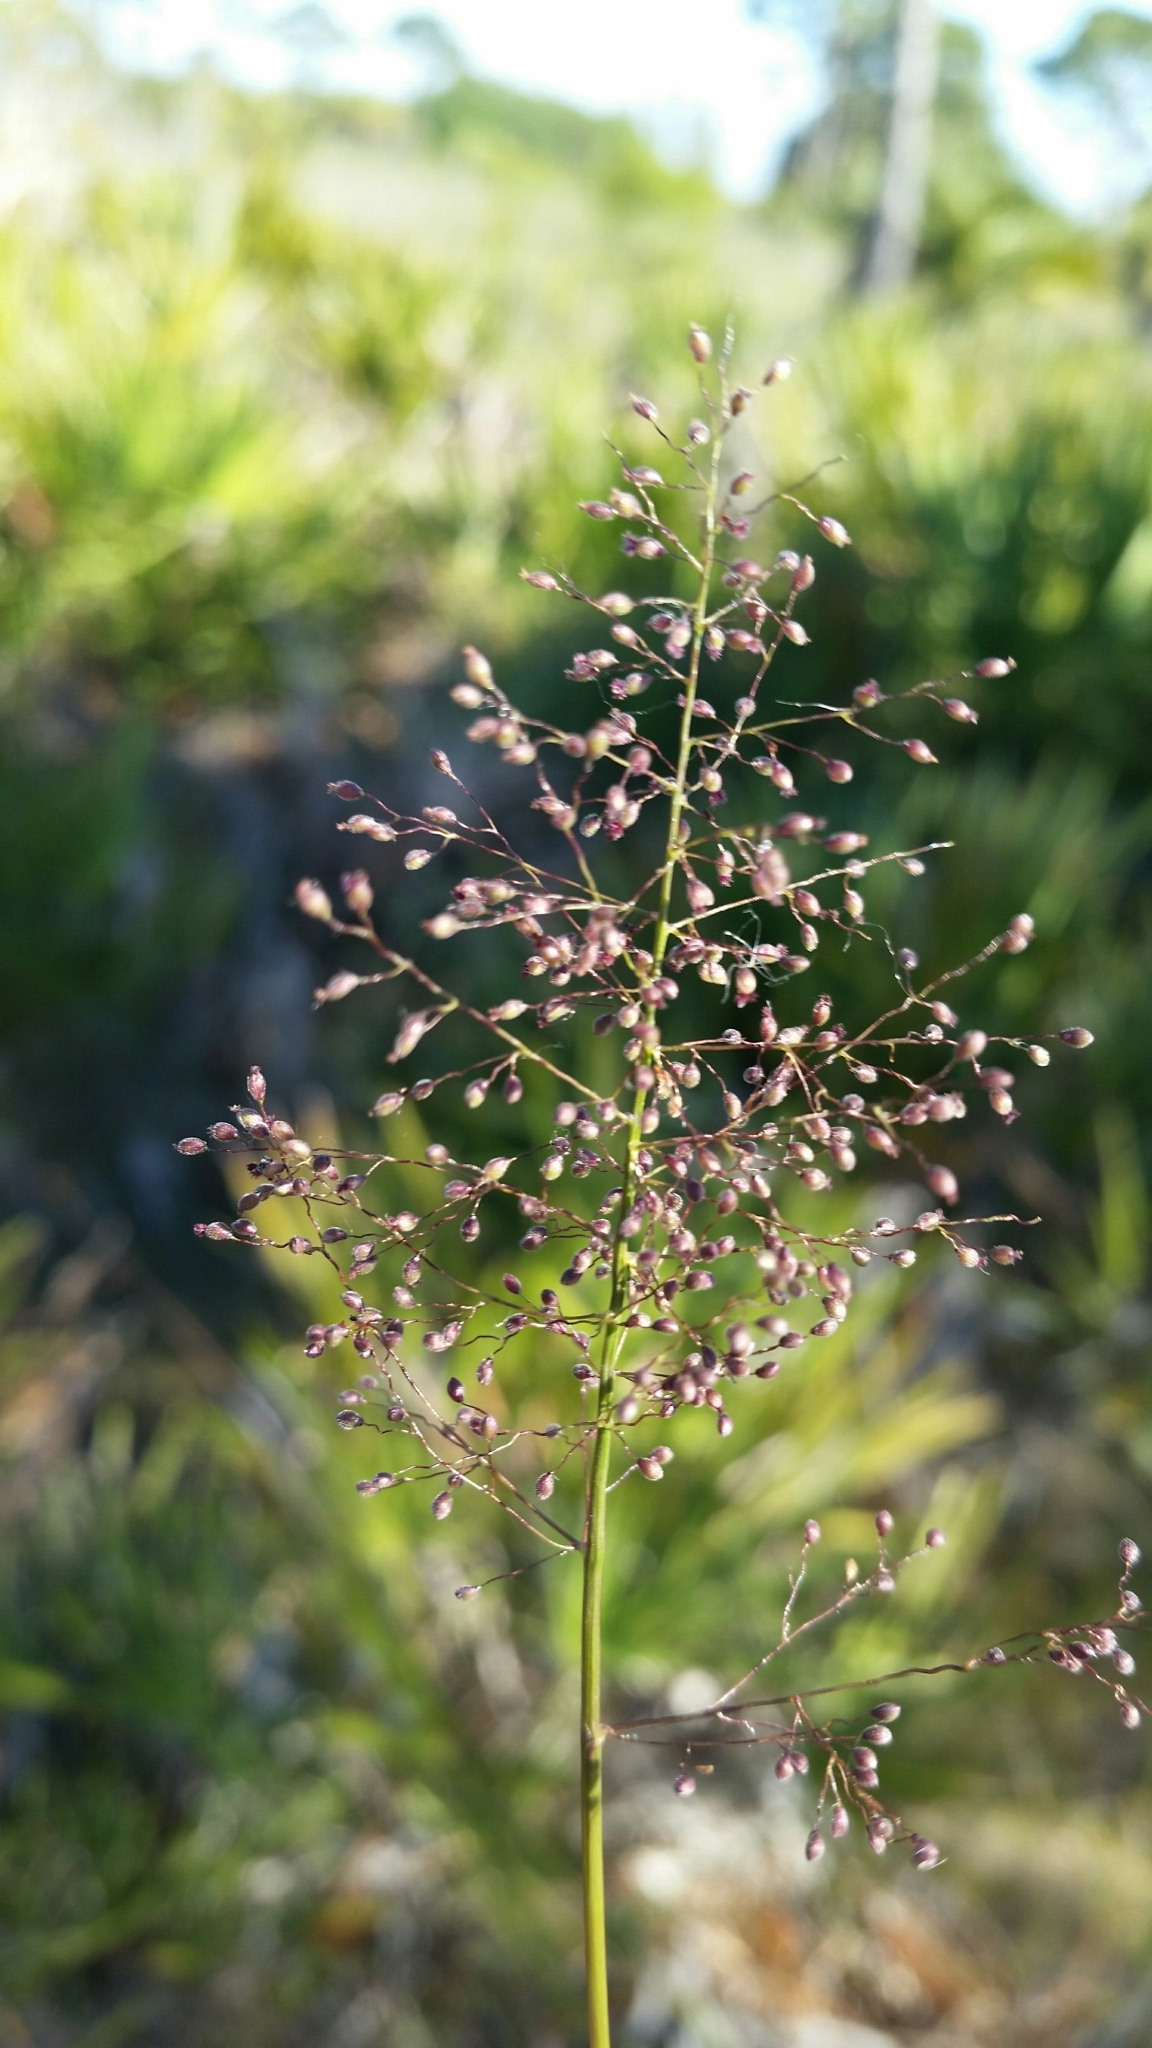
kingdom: Plantae
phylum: Tracheophyta
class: Liliopsida
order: Poales
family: Poaceae
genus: Dichanthelium
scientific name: Dichanthelium tenue
